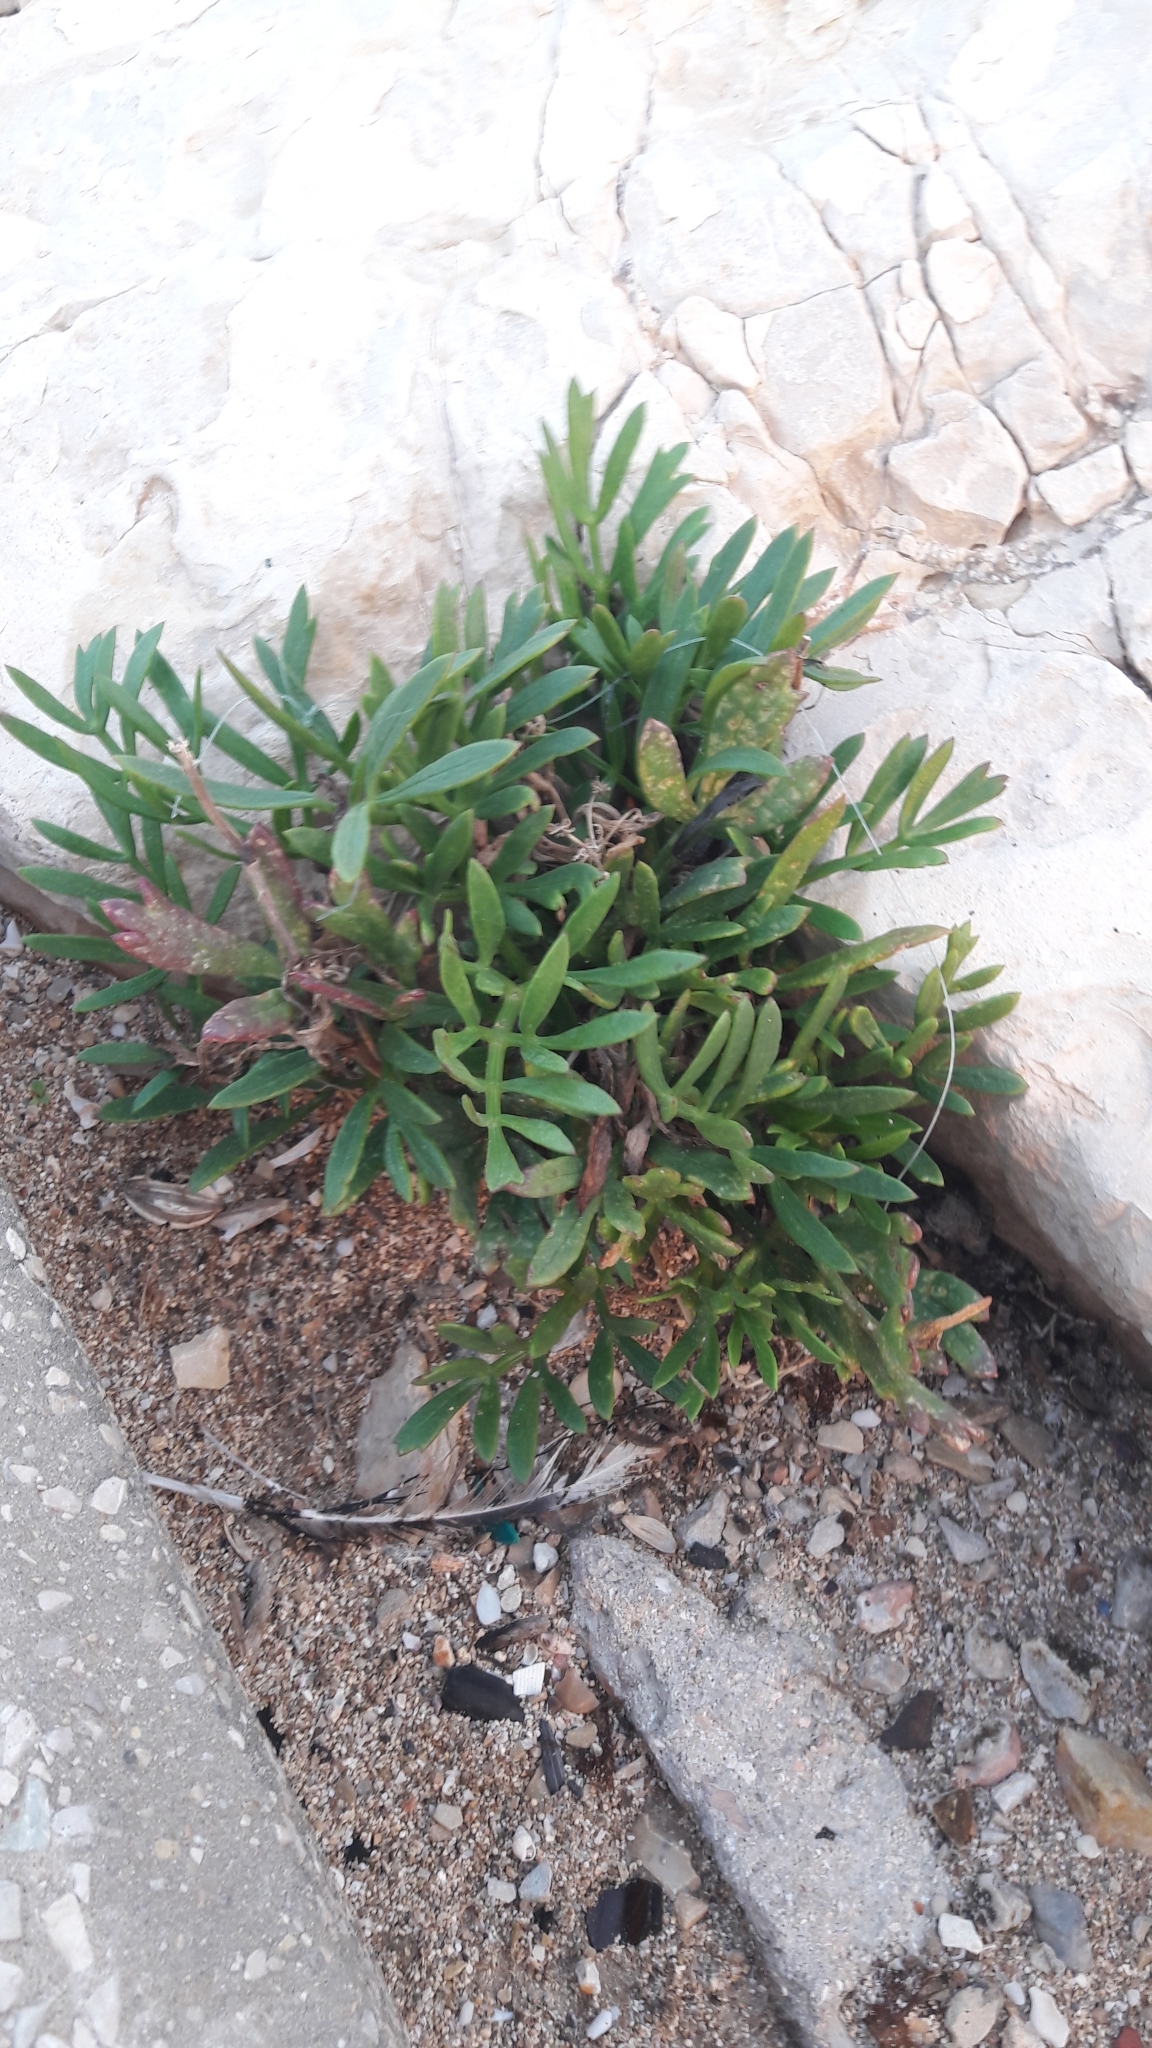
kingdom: Plantae
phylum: Tracheophyta
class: Magnoliopsida
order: Apiales
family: Apiaceae
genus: Crithmum
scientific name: Crithmum maritimum
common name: Rock samphire
